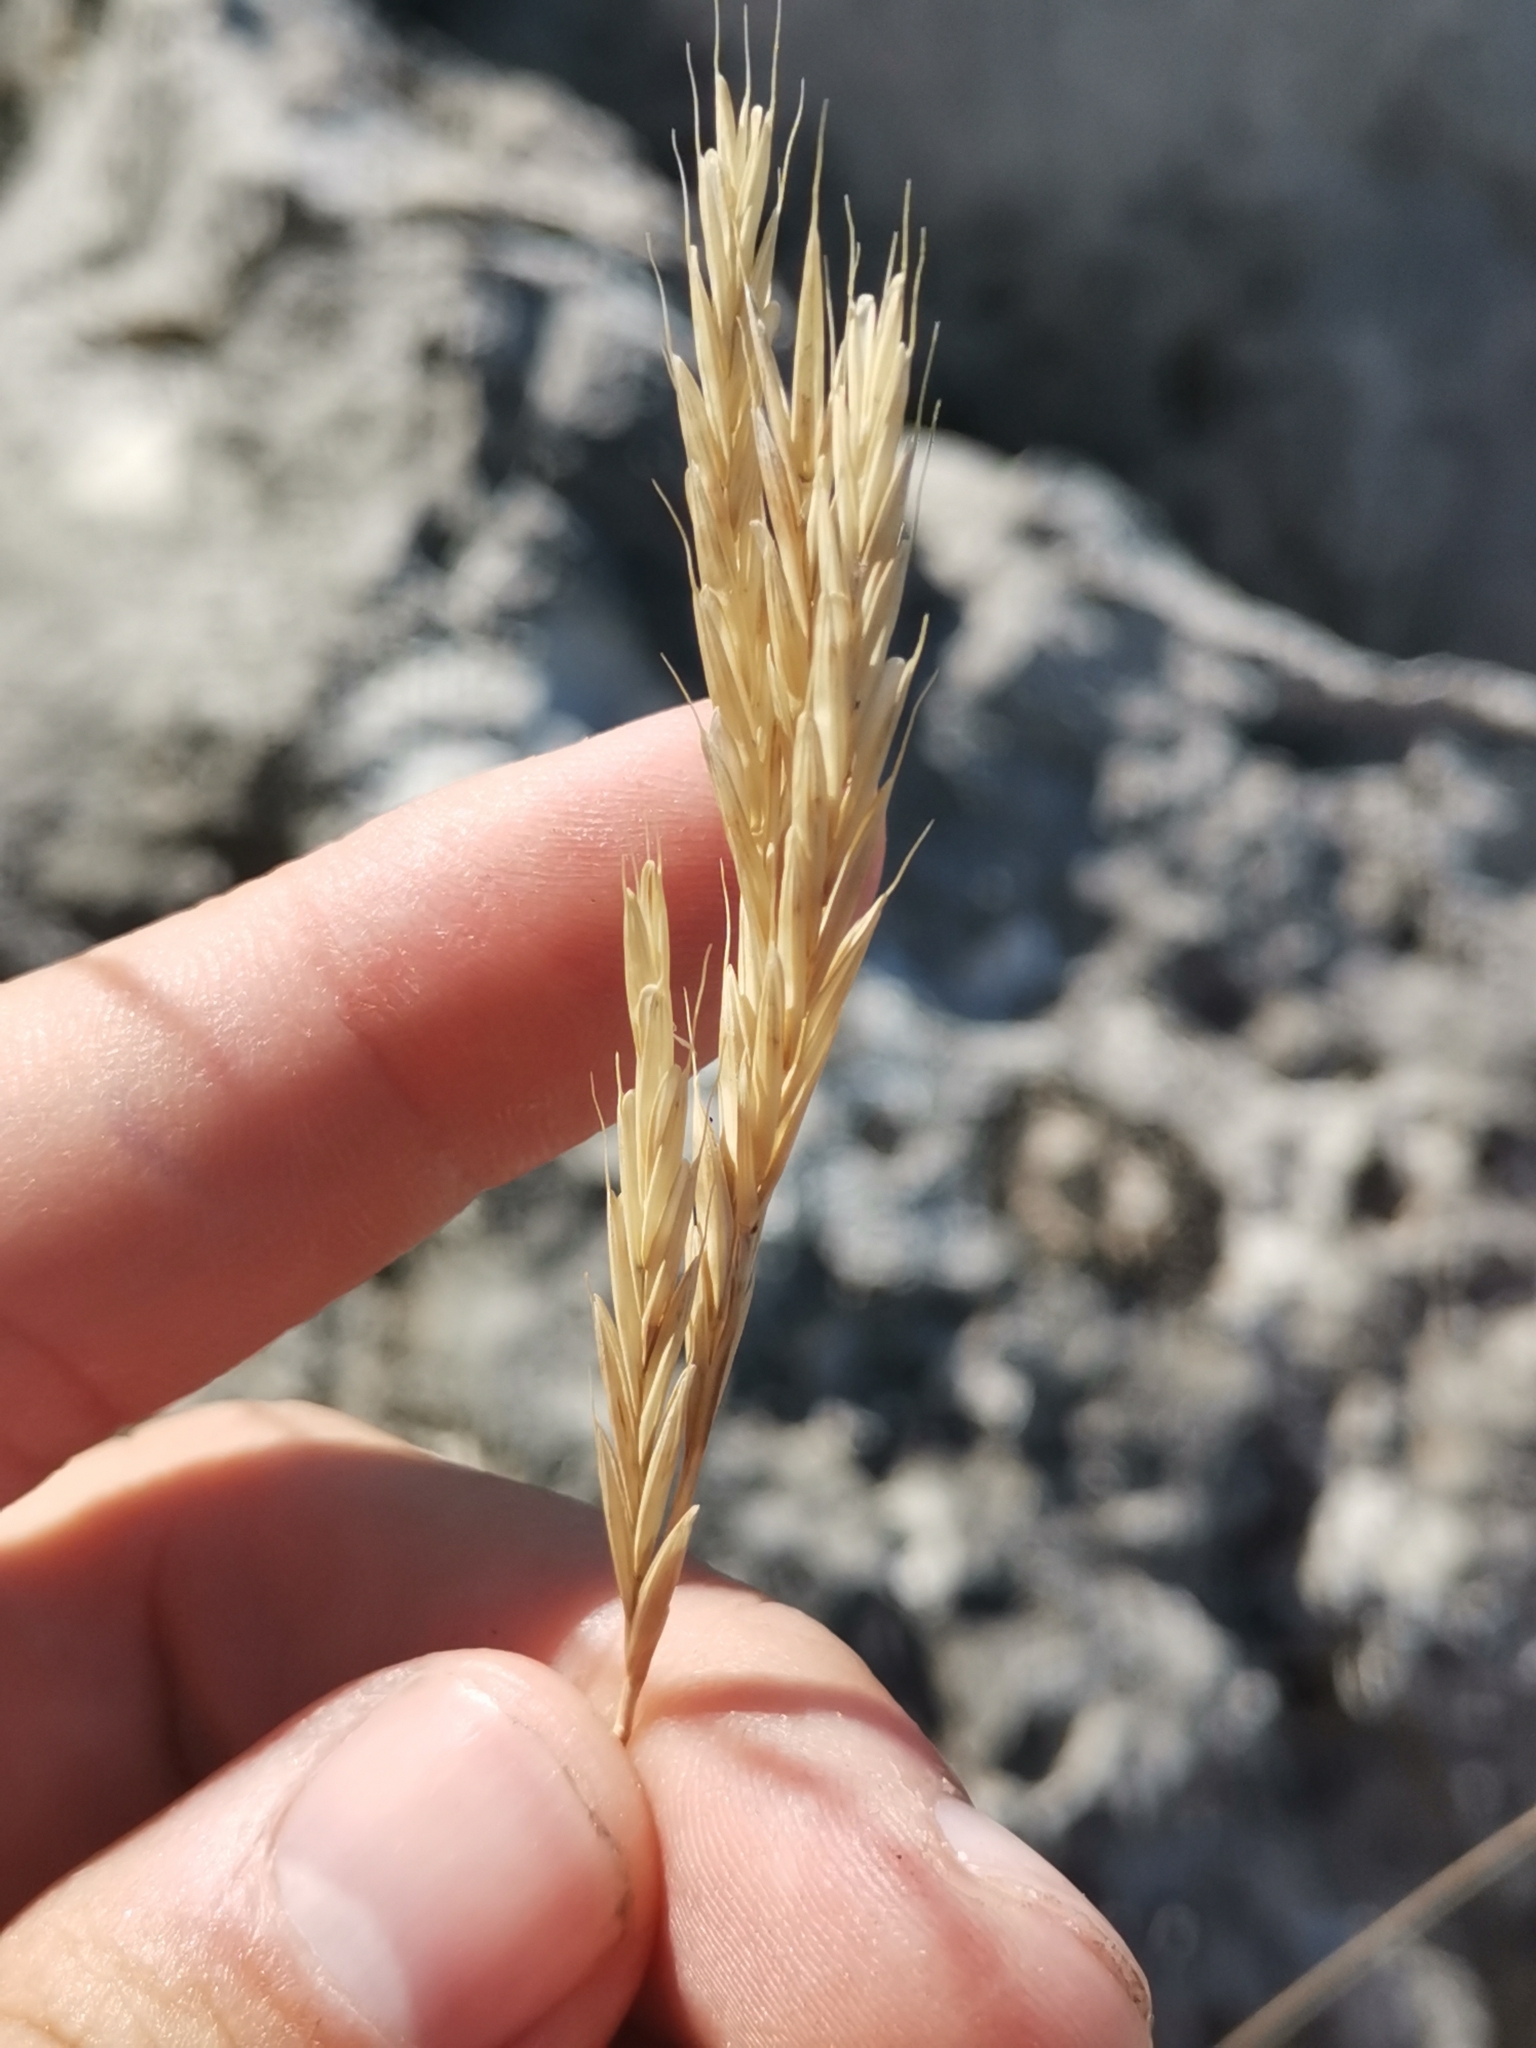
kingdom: Plantae
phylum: Tracheophyta
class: Liliopsida
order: Poales
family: Poaceae
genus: Brachypodium
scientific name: Brachypodium retusum
